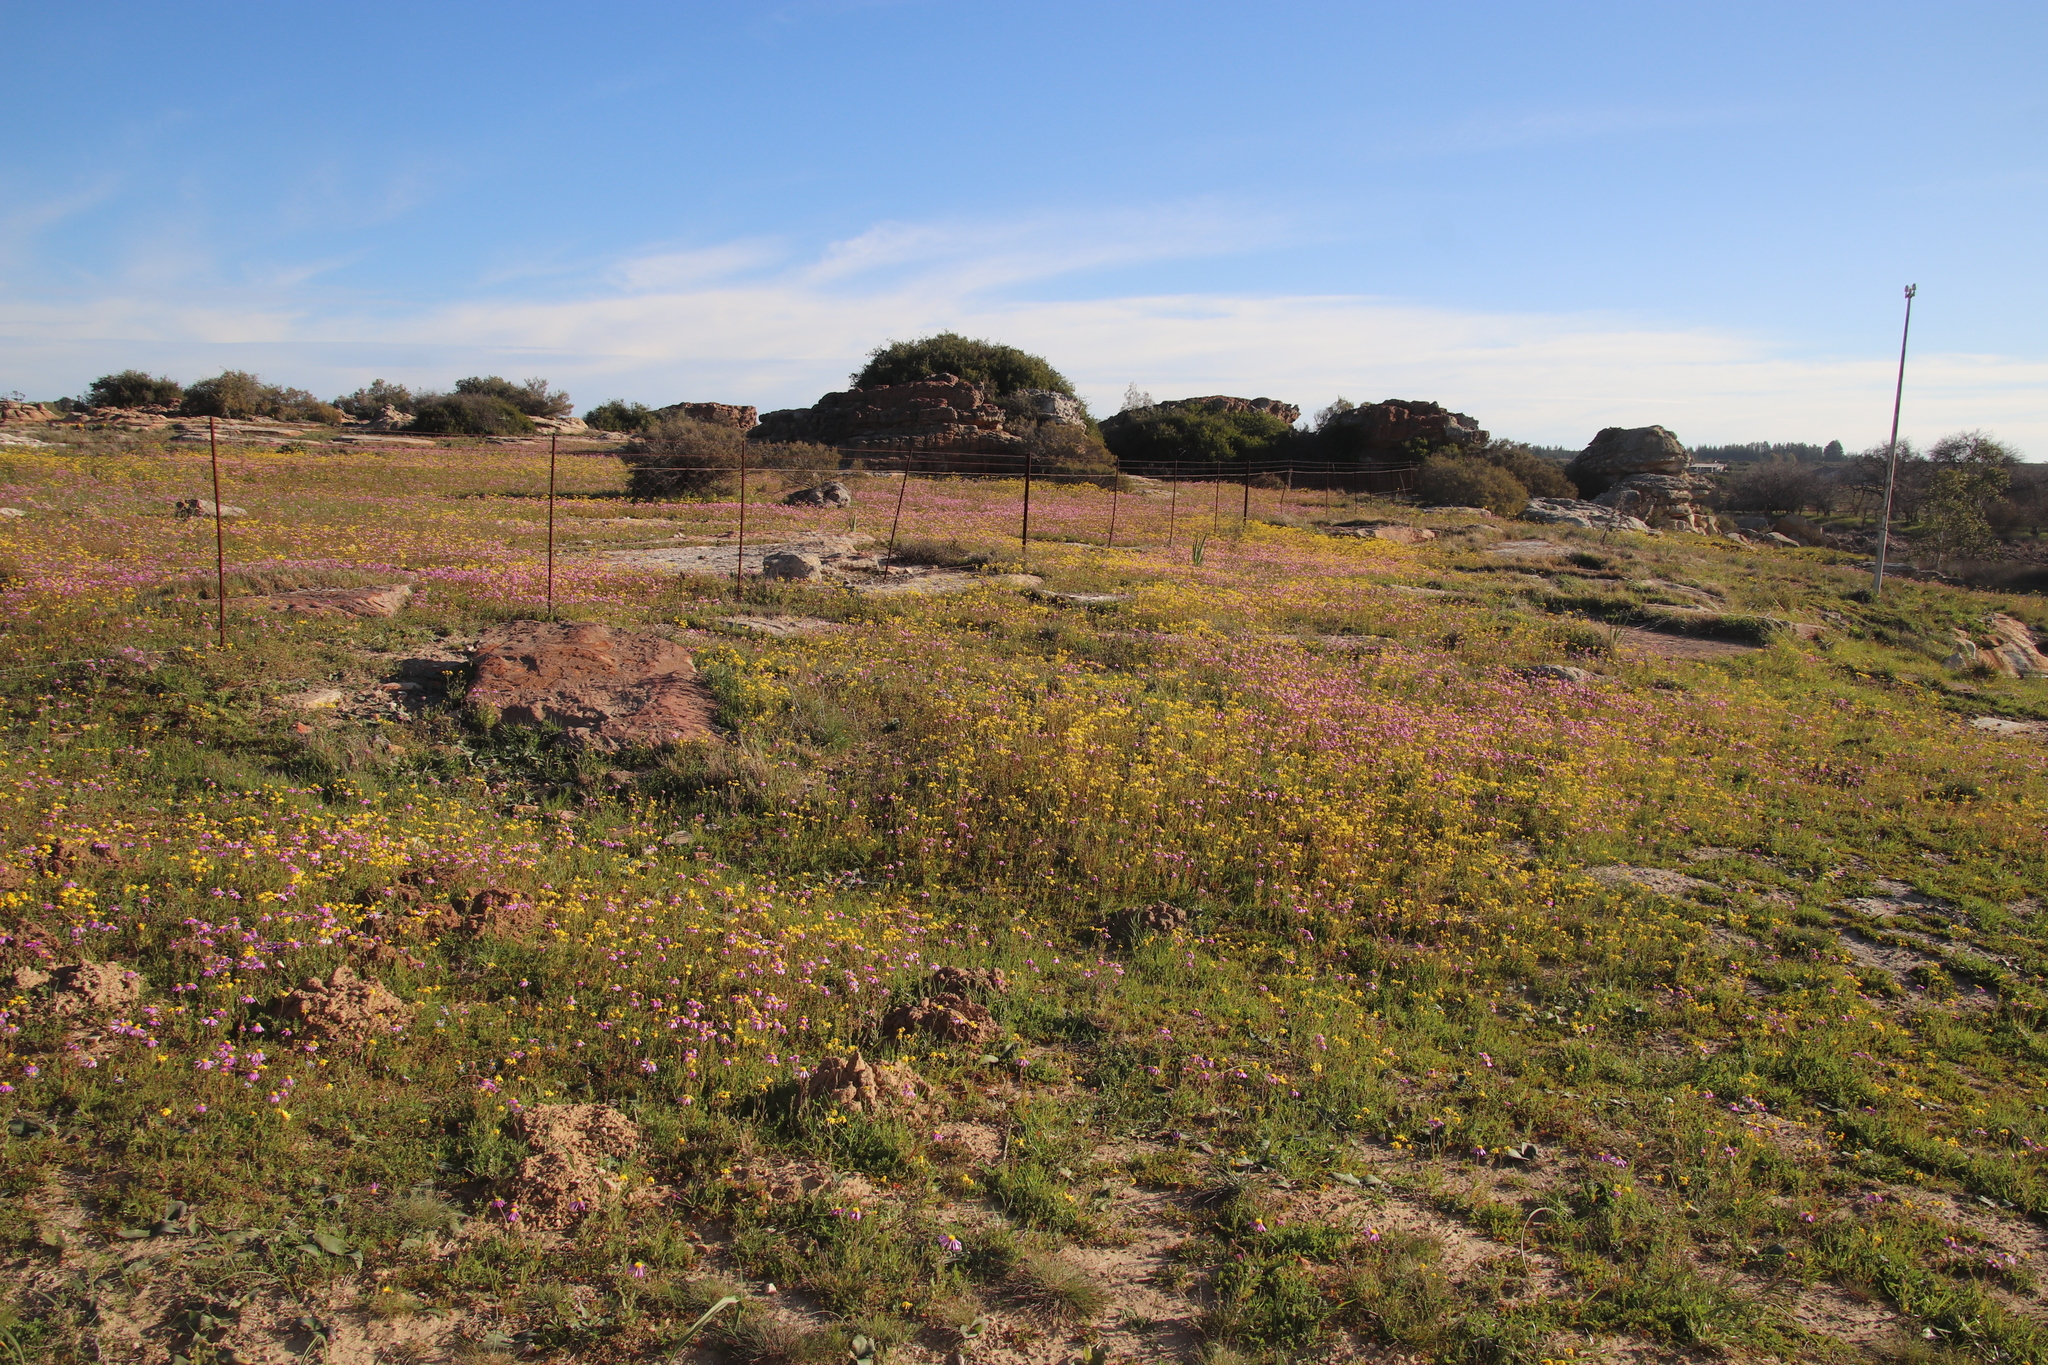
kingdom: Plantae
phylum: Tracheophyta
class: Magnoliopsida
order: Asterales
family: Asteraceae
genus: Senecio
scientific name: Senecio abruptus
